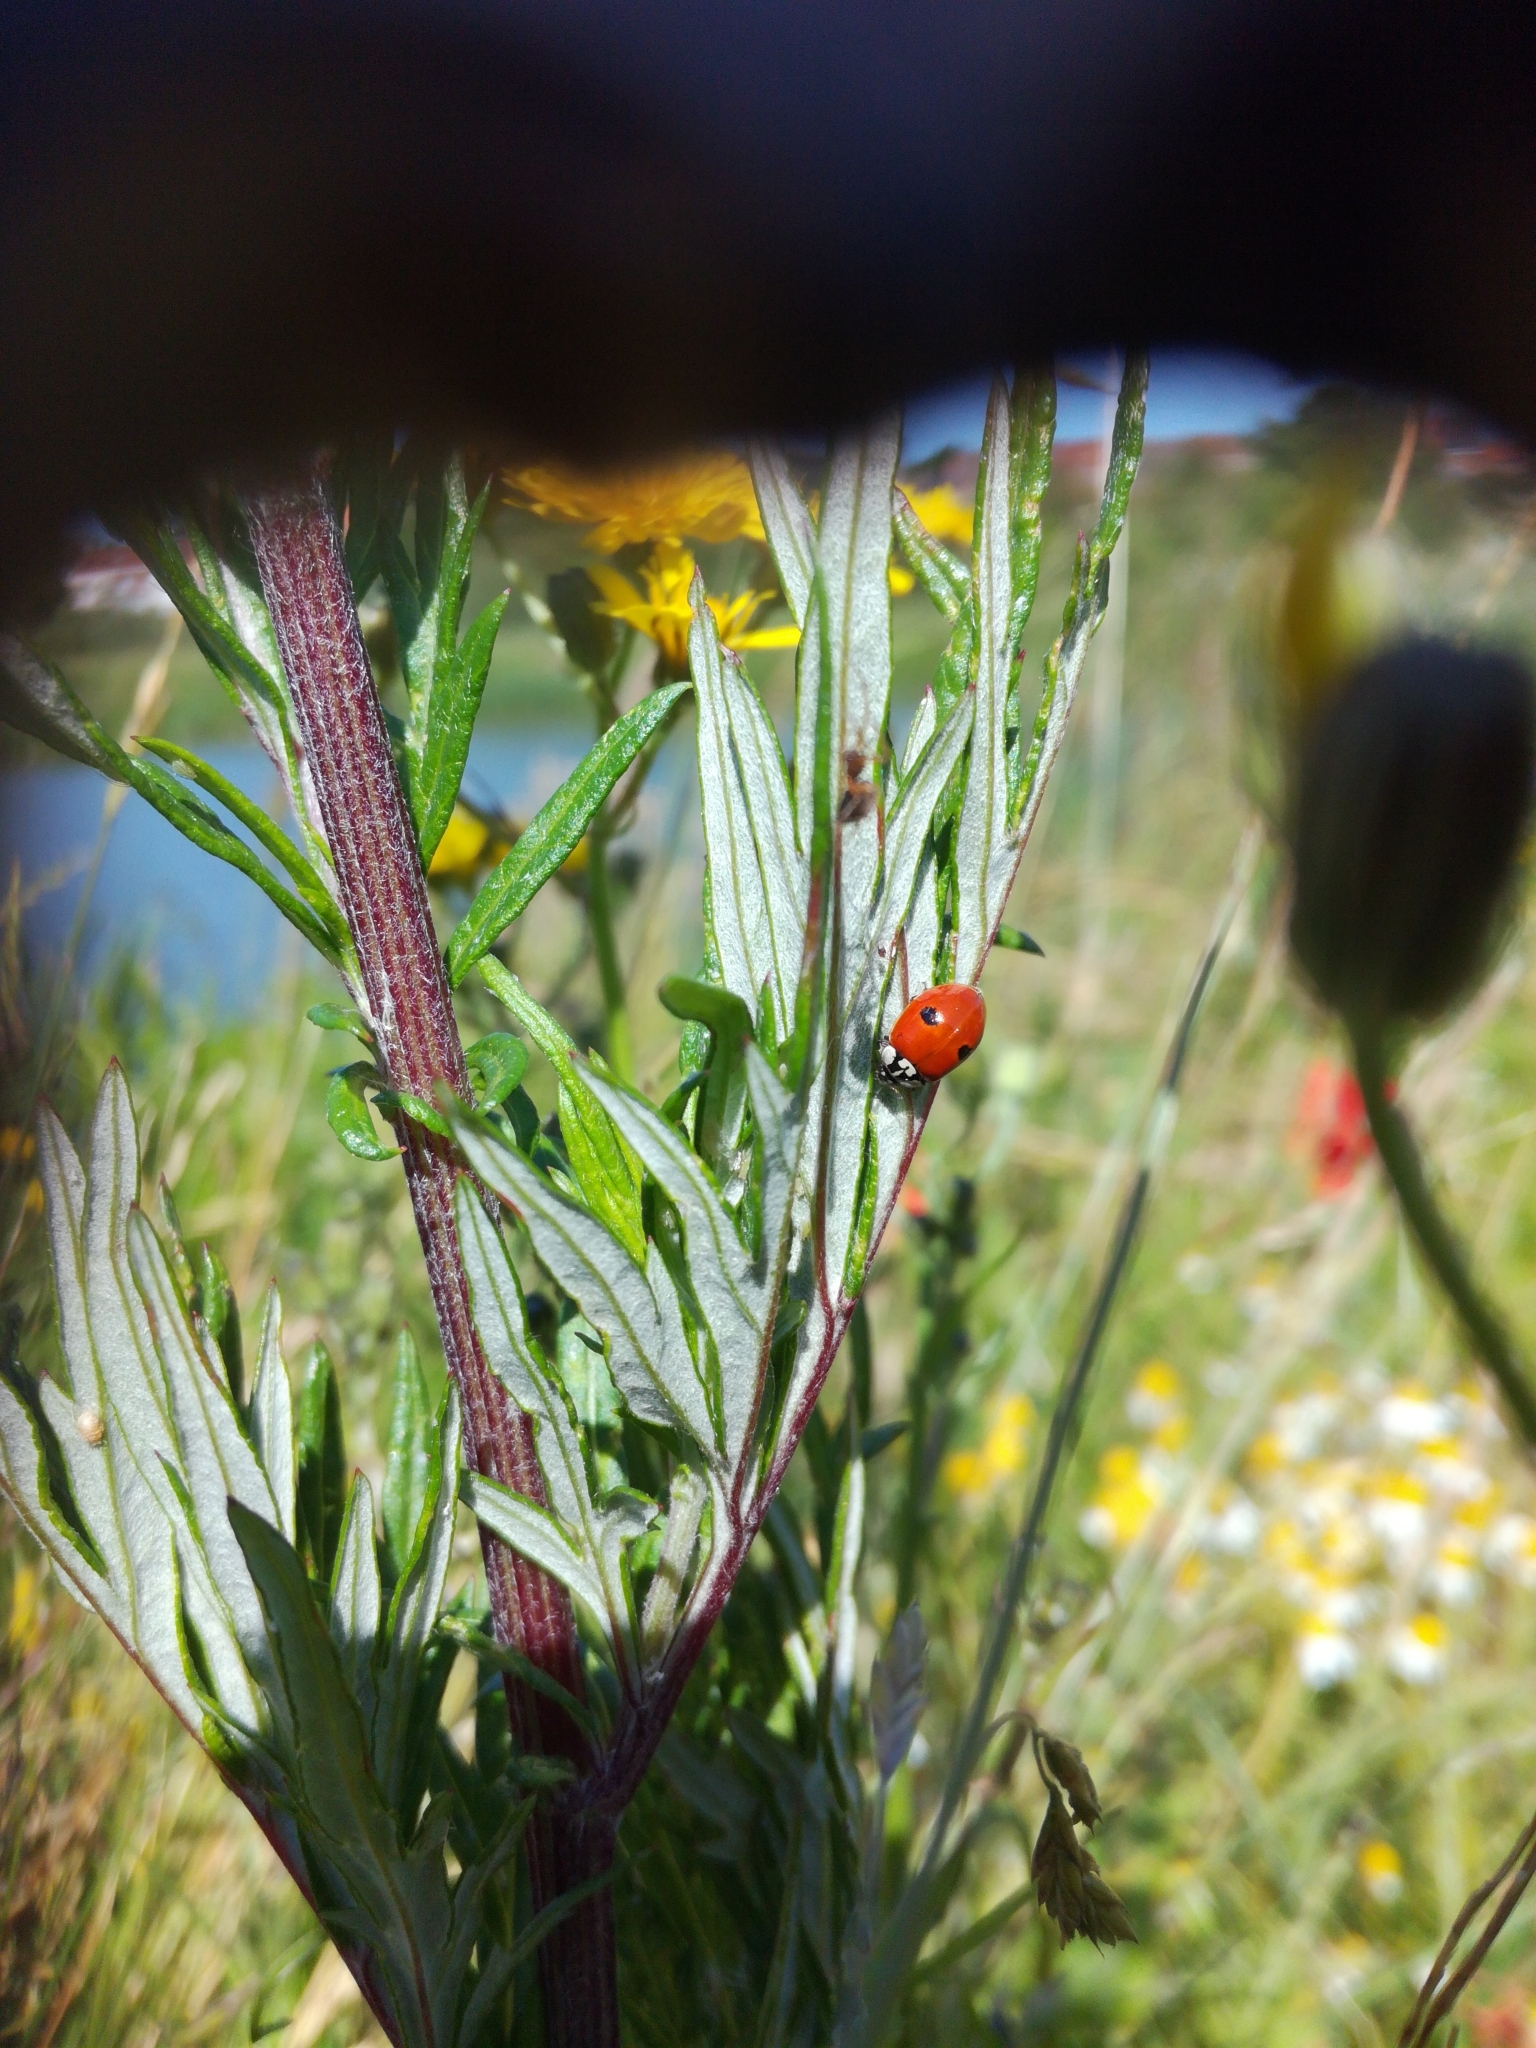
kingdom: Animalia
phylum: Arthropoda
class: Insecta
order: Coleoptera
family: Coccinellidae
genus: Adalia
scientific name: Adalia bipunctata
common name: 2-spot ladybird
